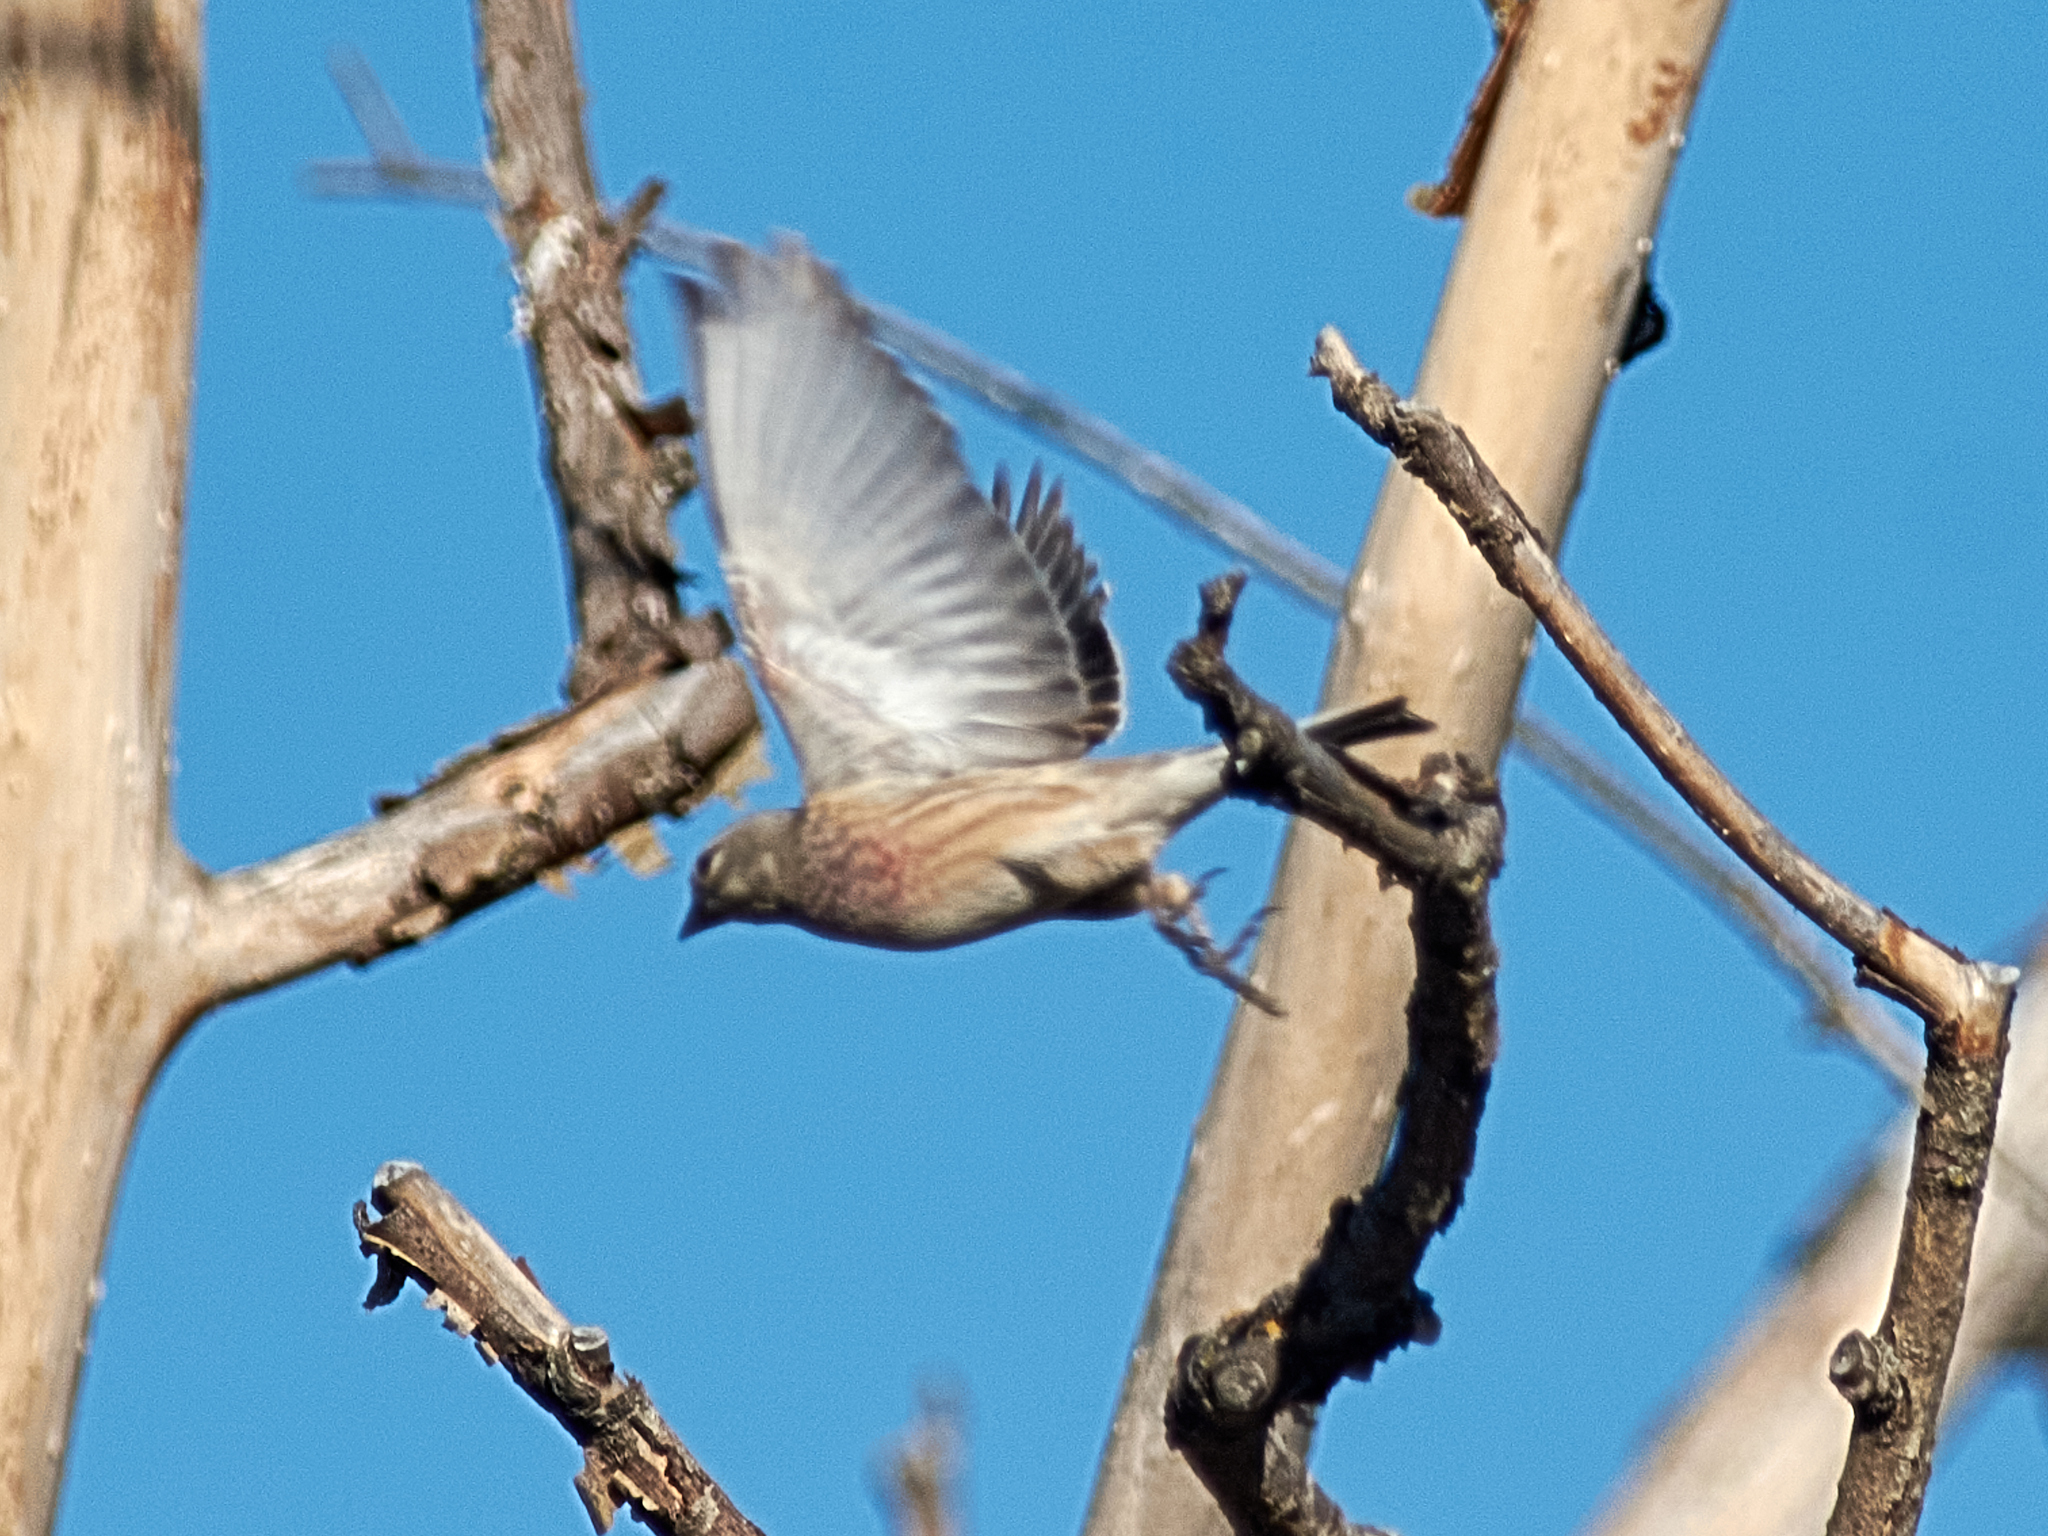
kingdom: Animalia
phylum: Chordata
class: Aves
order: Passeriformes
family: Fringillidae
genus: Linaria
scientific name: Linaria cannabina
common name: Common linnet
